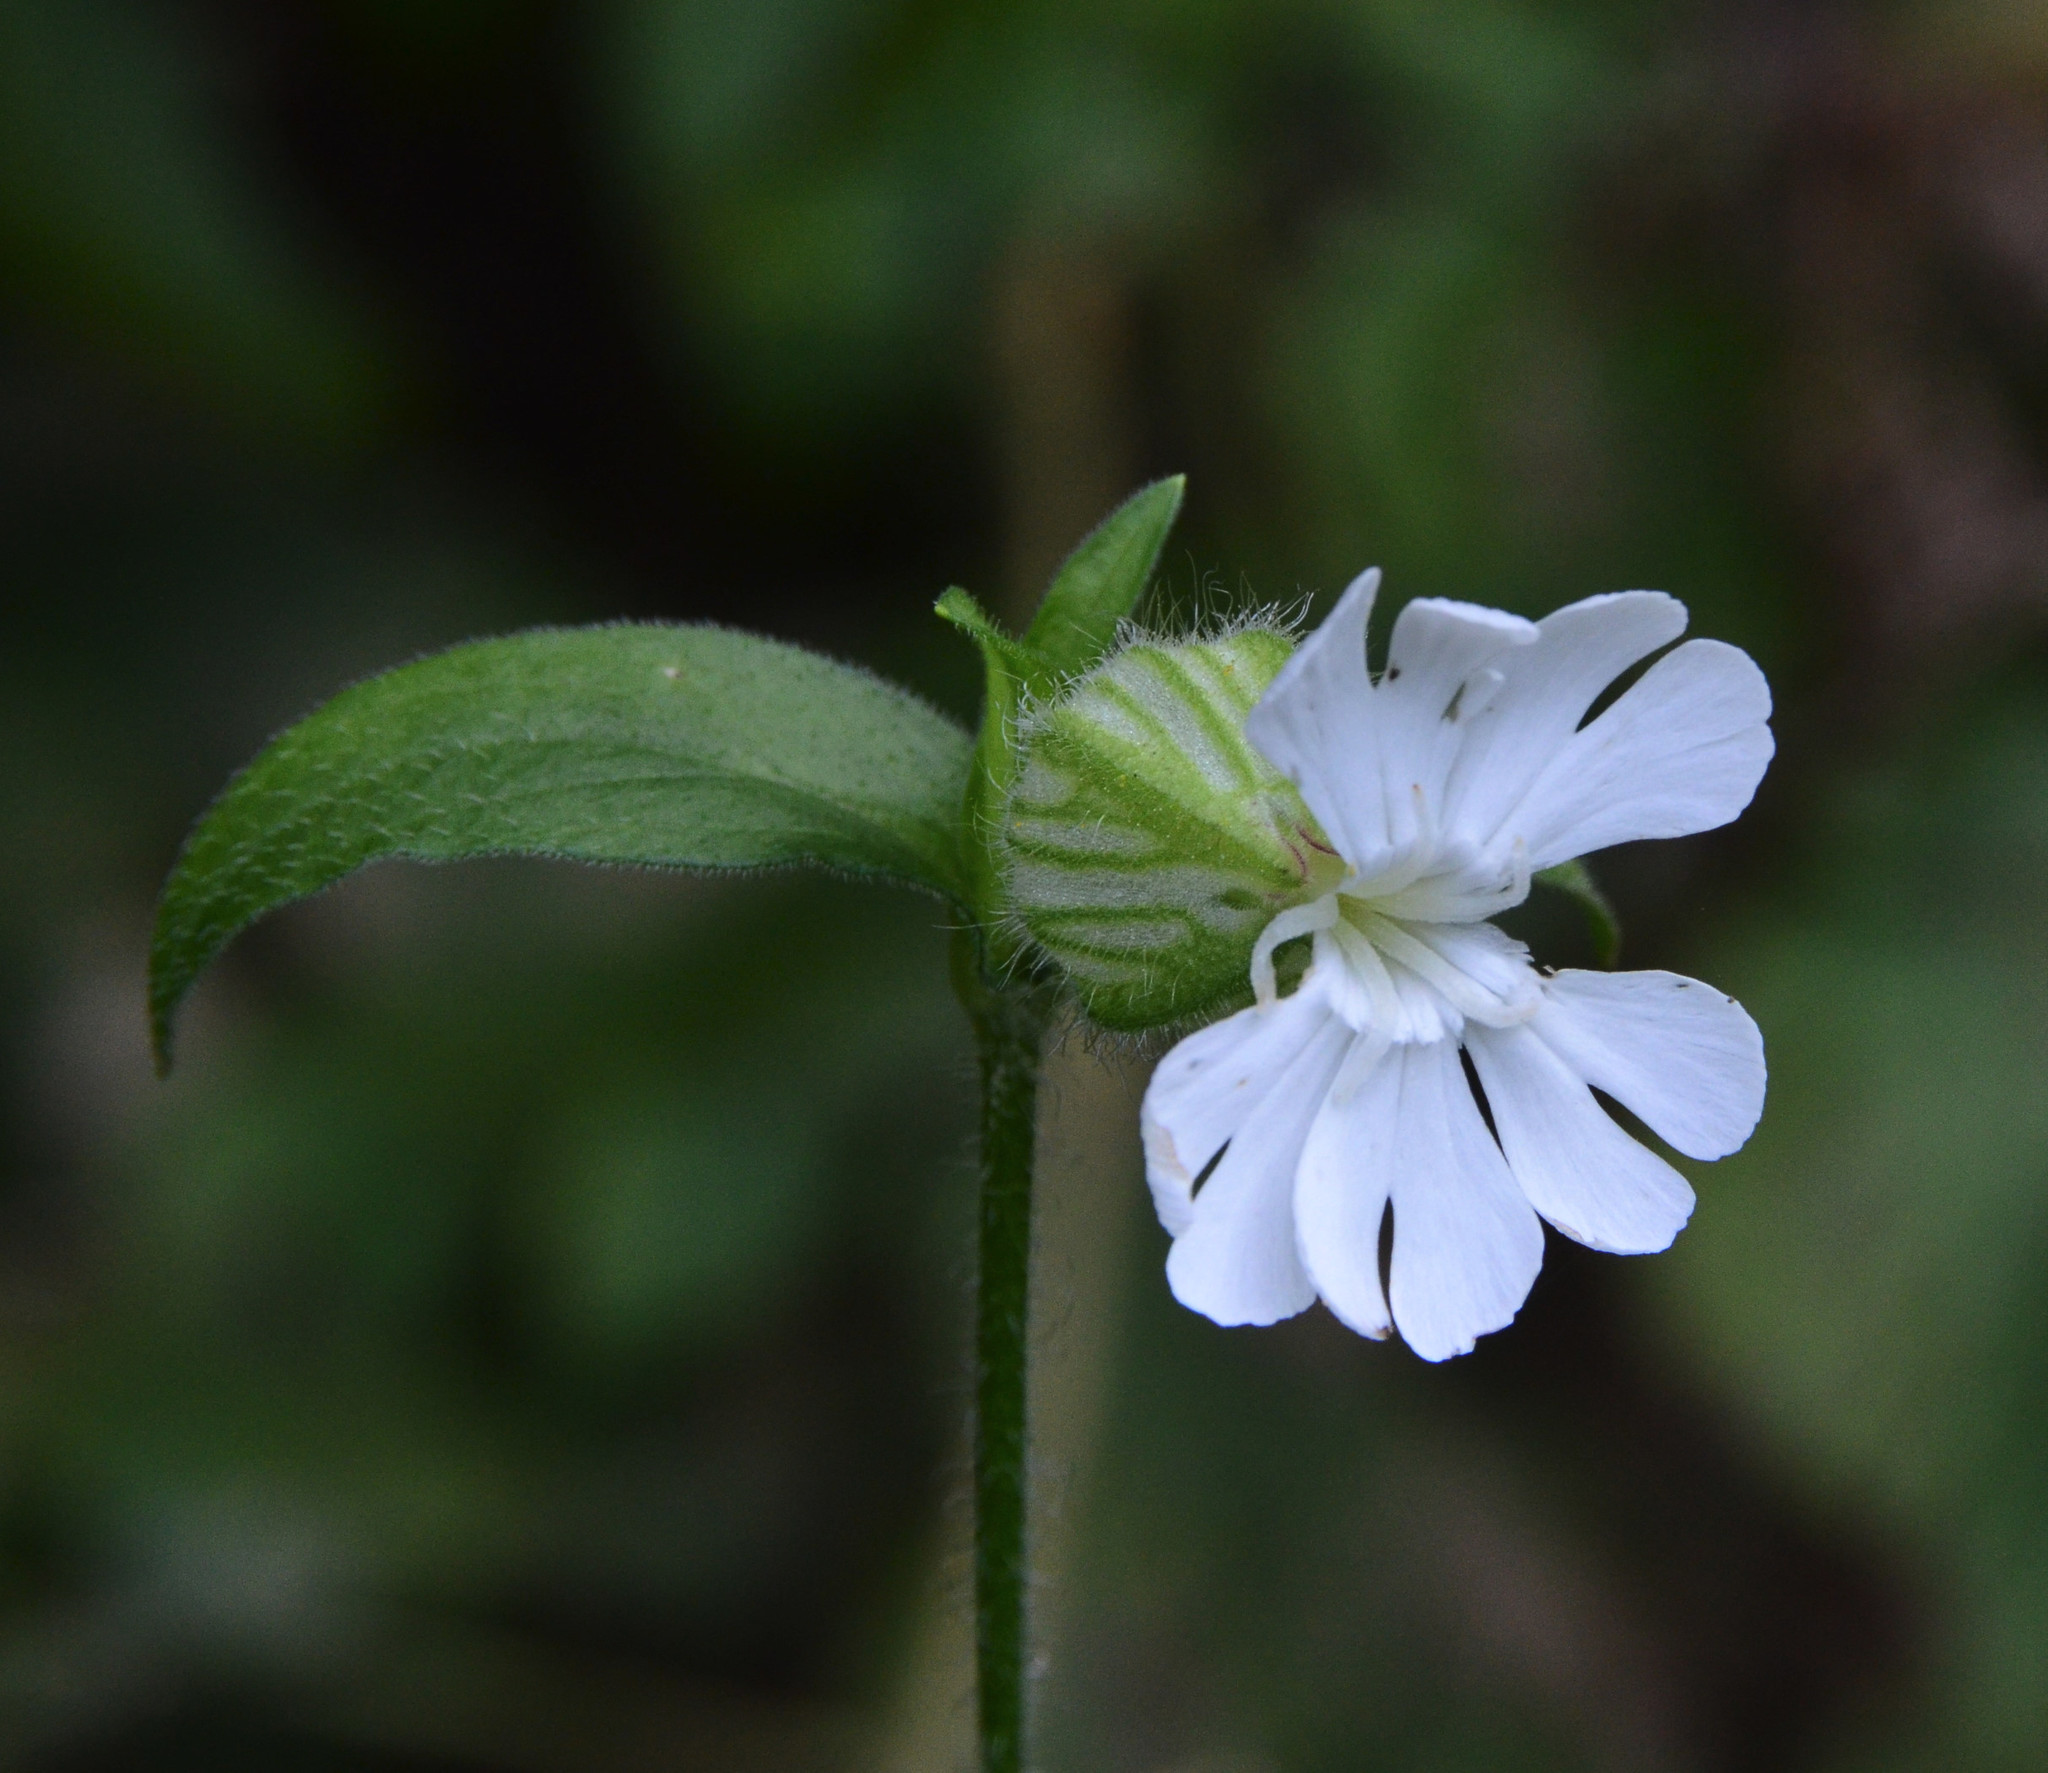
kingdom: Plantae
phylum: Tracheophyta
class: Magnoliopsida
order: Caryophyllales
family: Caryophyllaceae
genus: Silene
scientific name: Silene latifolia
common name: White campion
